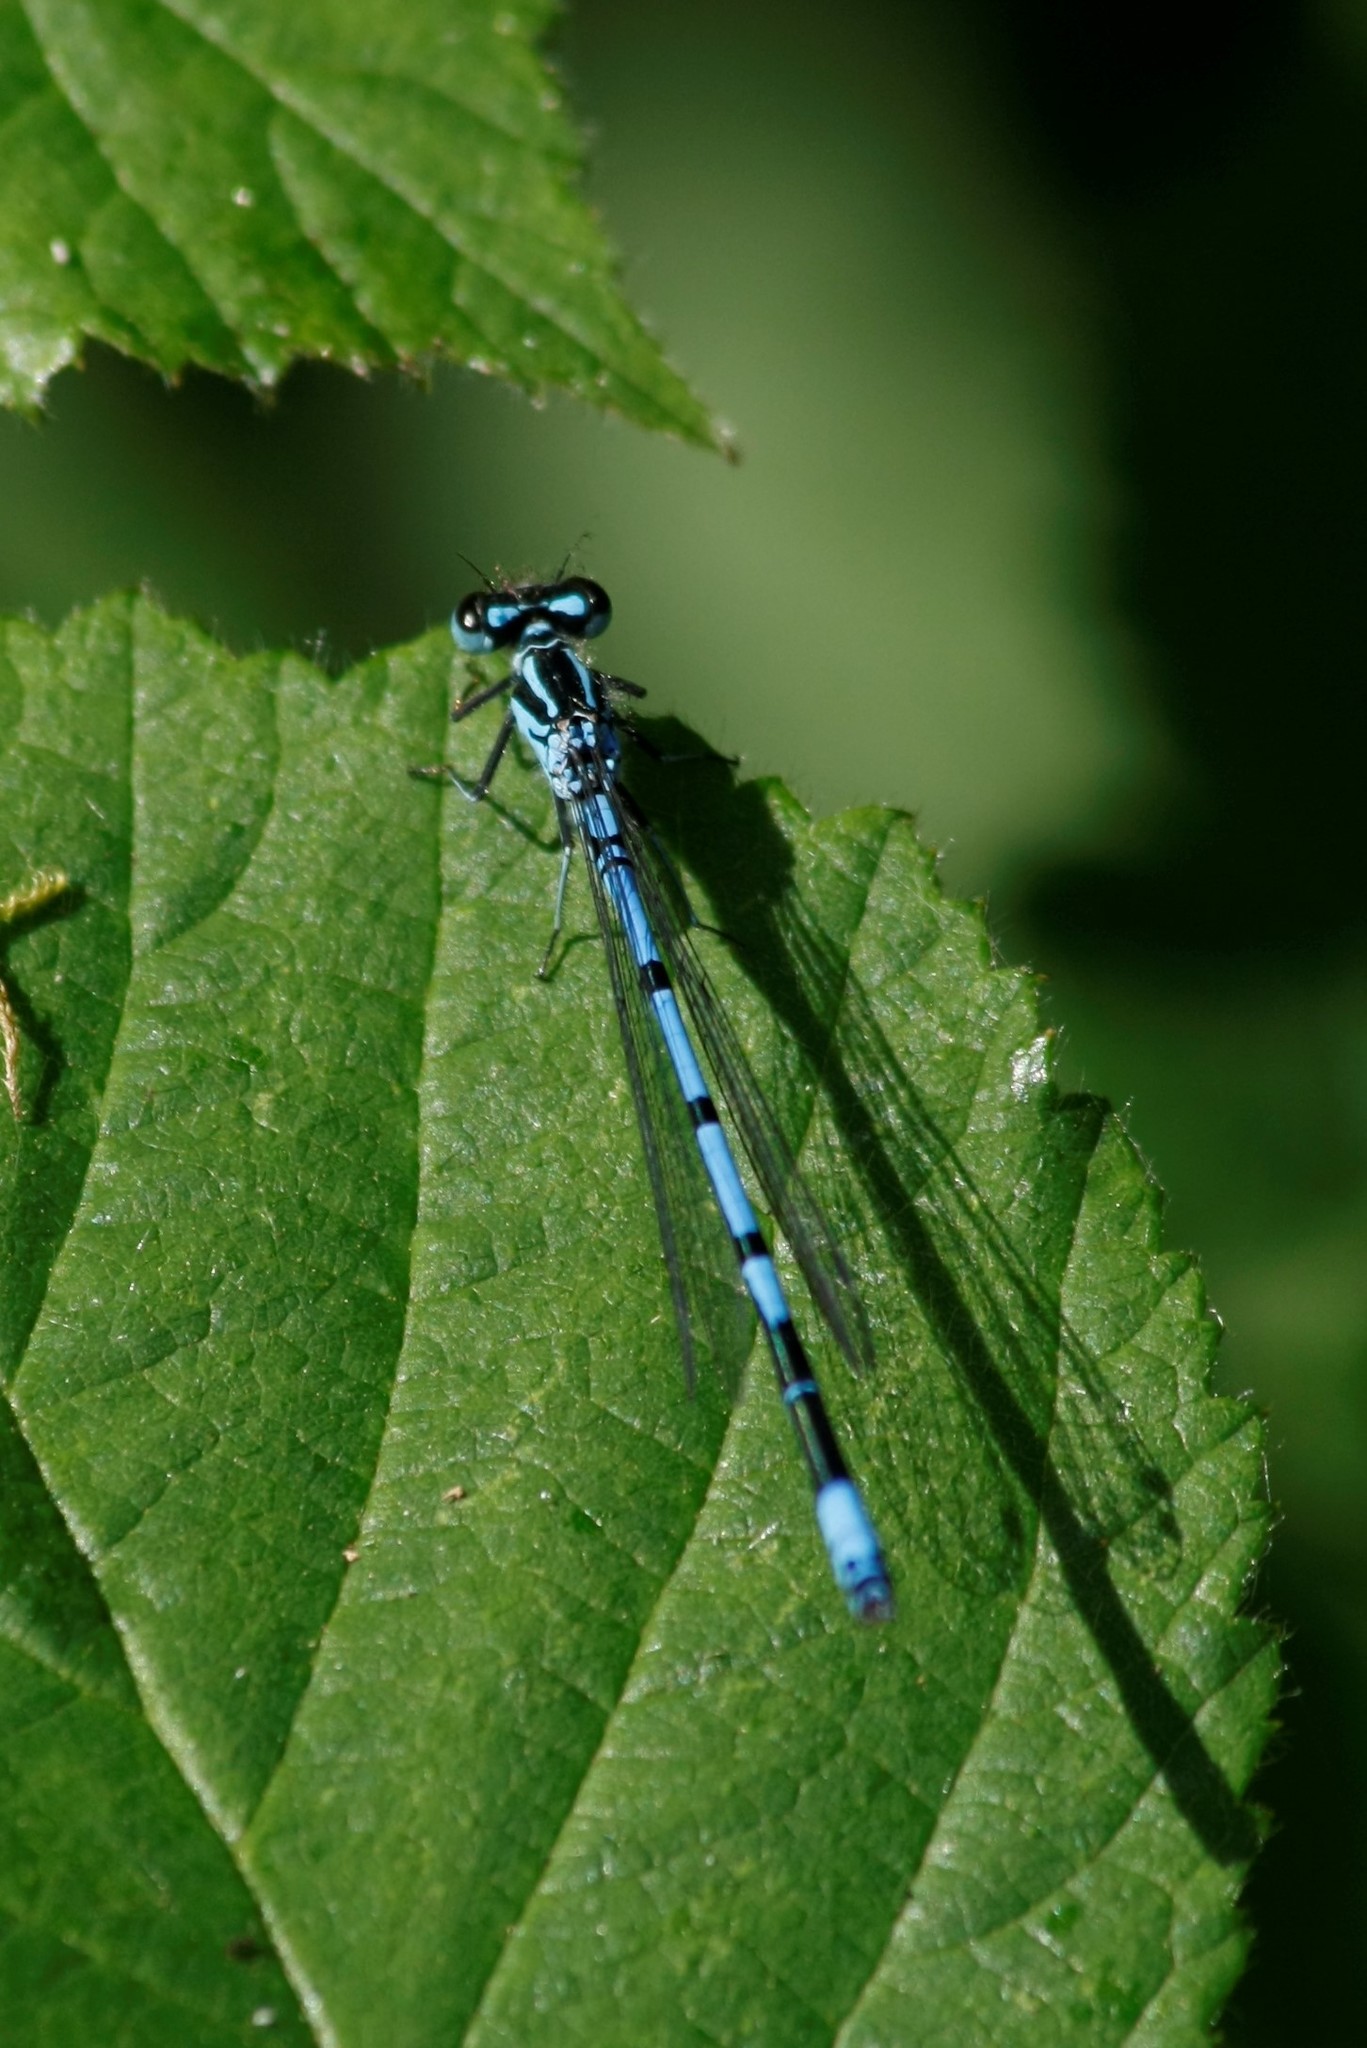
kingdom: Animalia
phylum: Arthropoda
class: Insecta
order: Odonata
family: Coenagrionidae
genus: Coenagrion
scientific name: Coenagrion puella
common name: Azure damselfly
